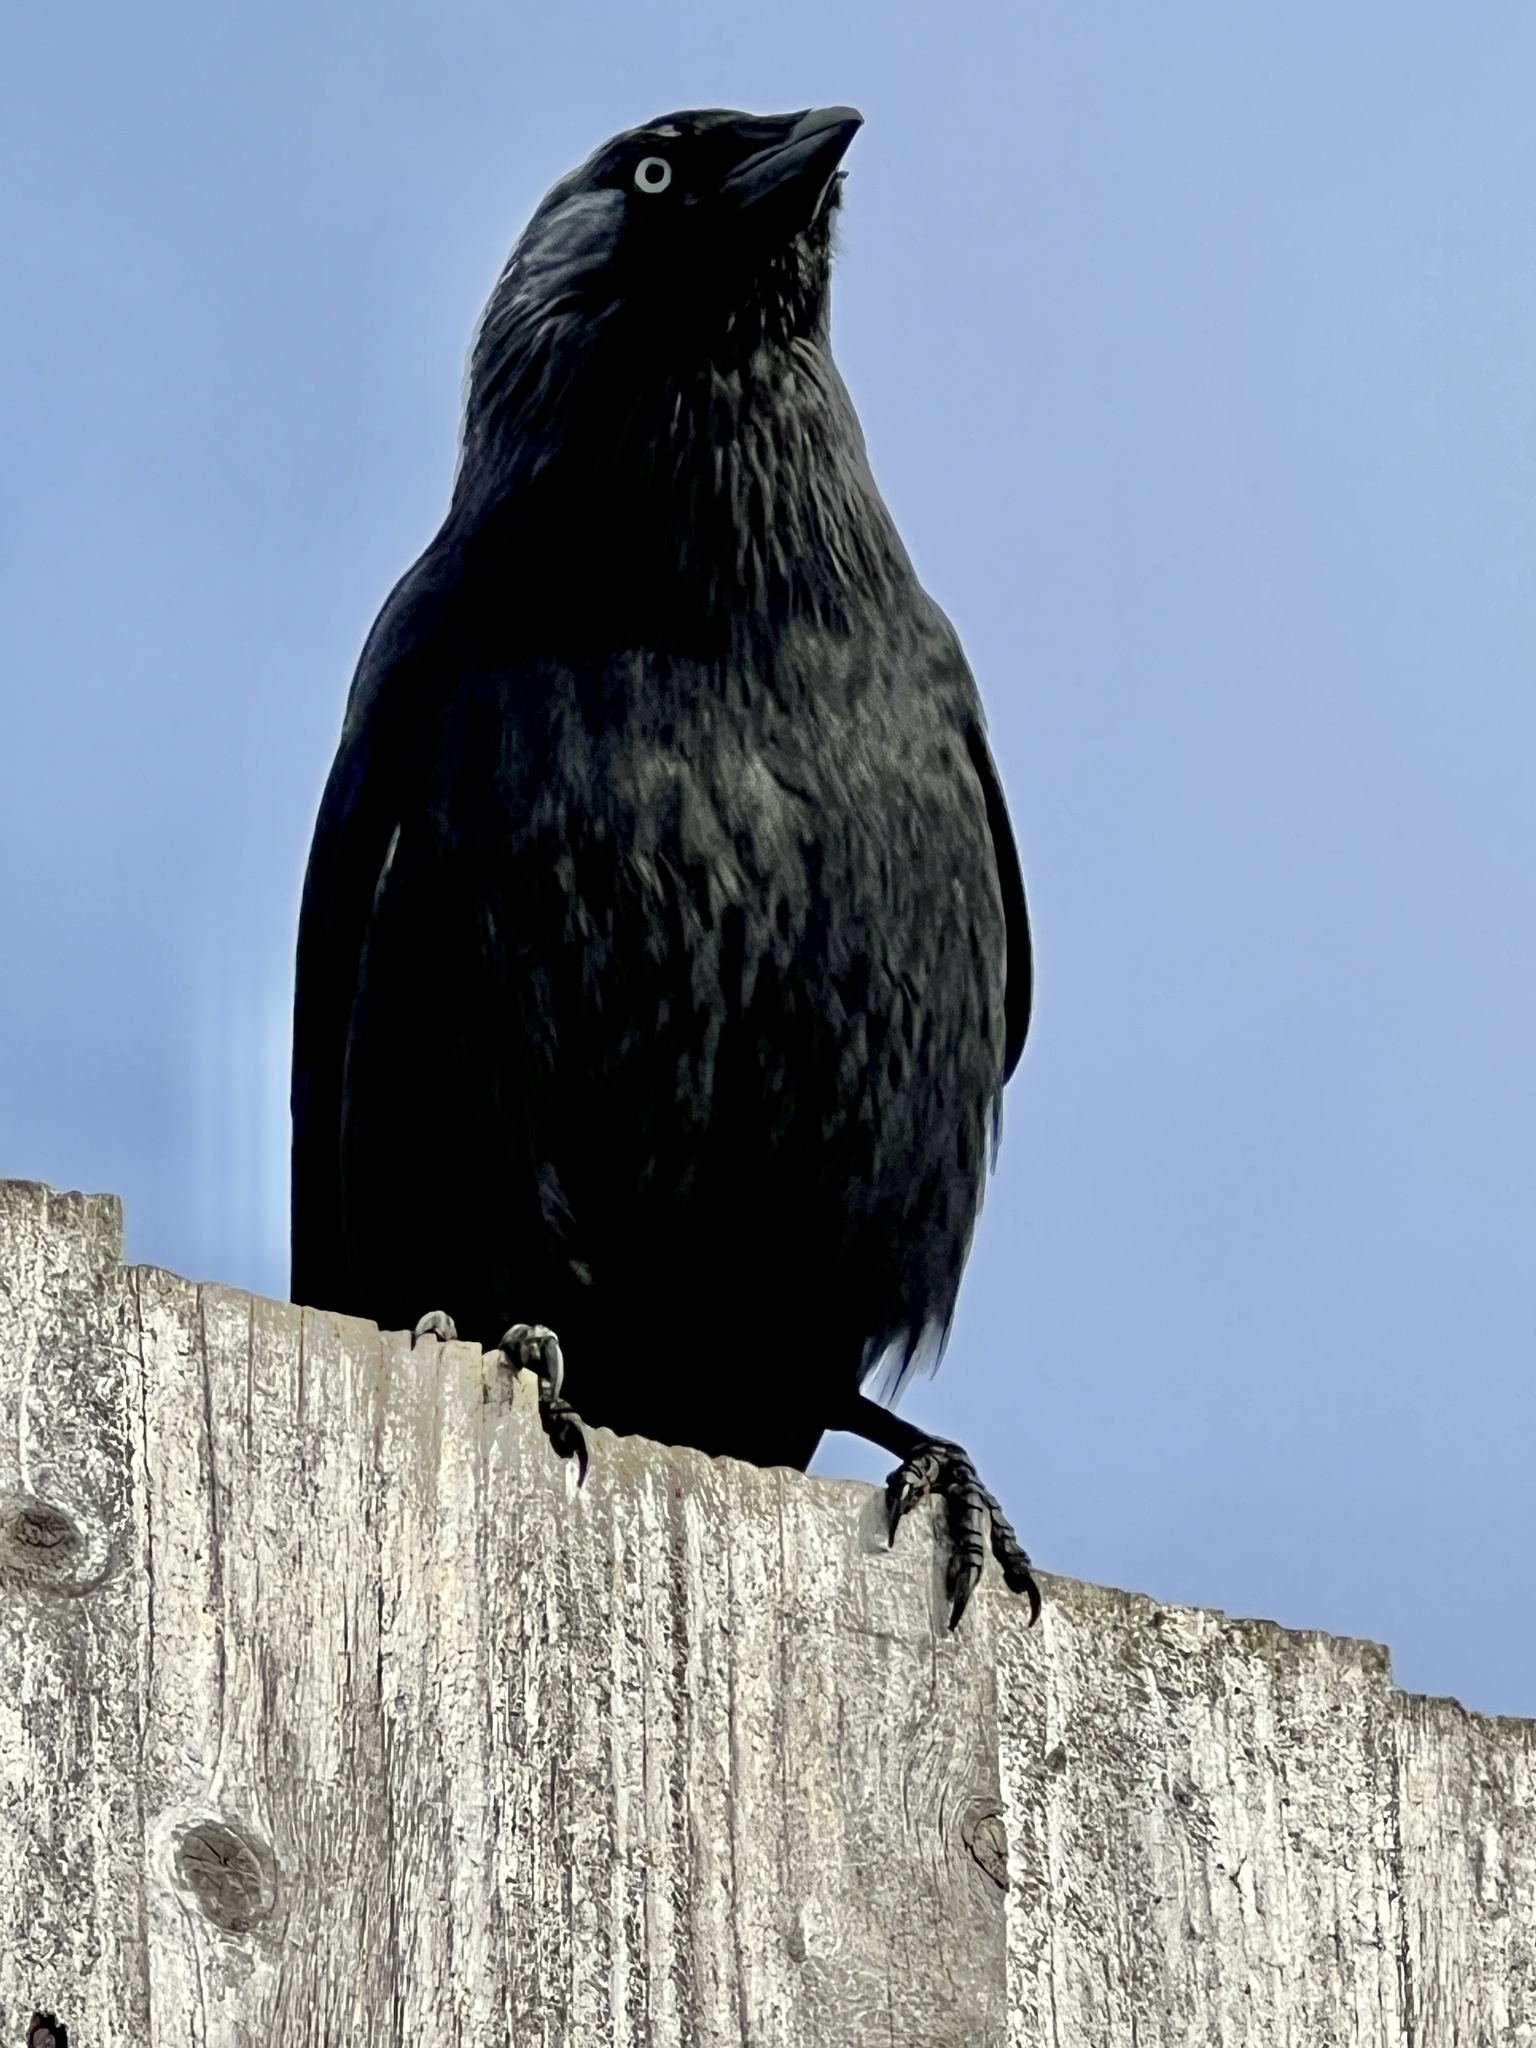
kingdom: Animalia
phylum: Chordata
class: Aves
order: Passeriformes
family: Corvidae
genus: Coloeus
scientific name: Coloeus monedula
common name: Western jackdaw
